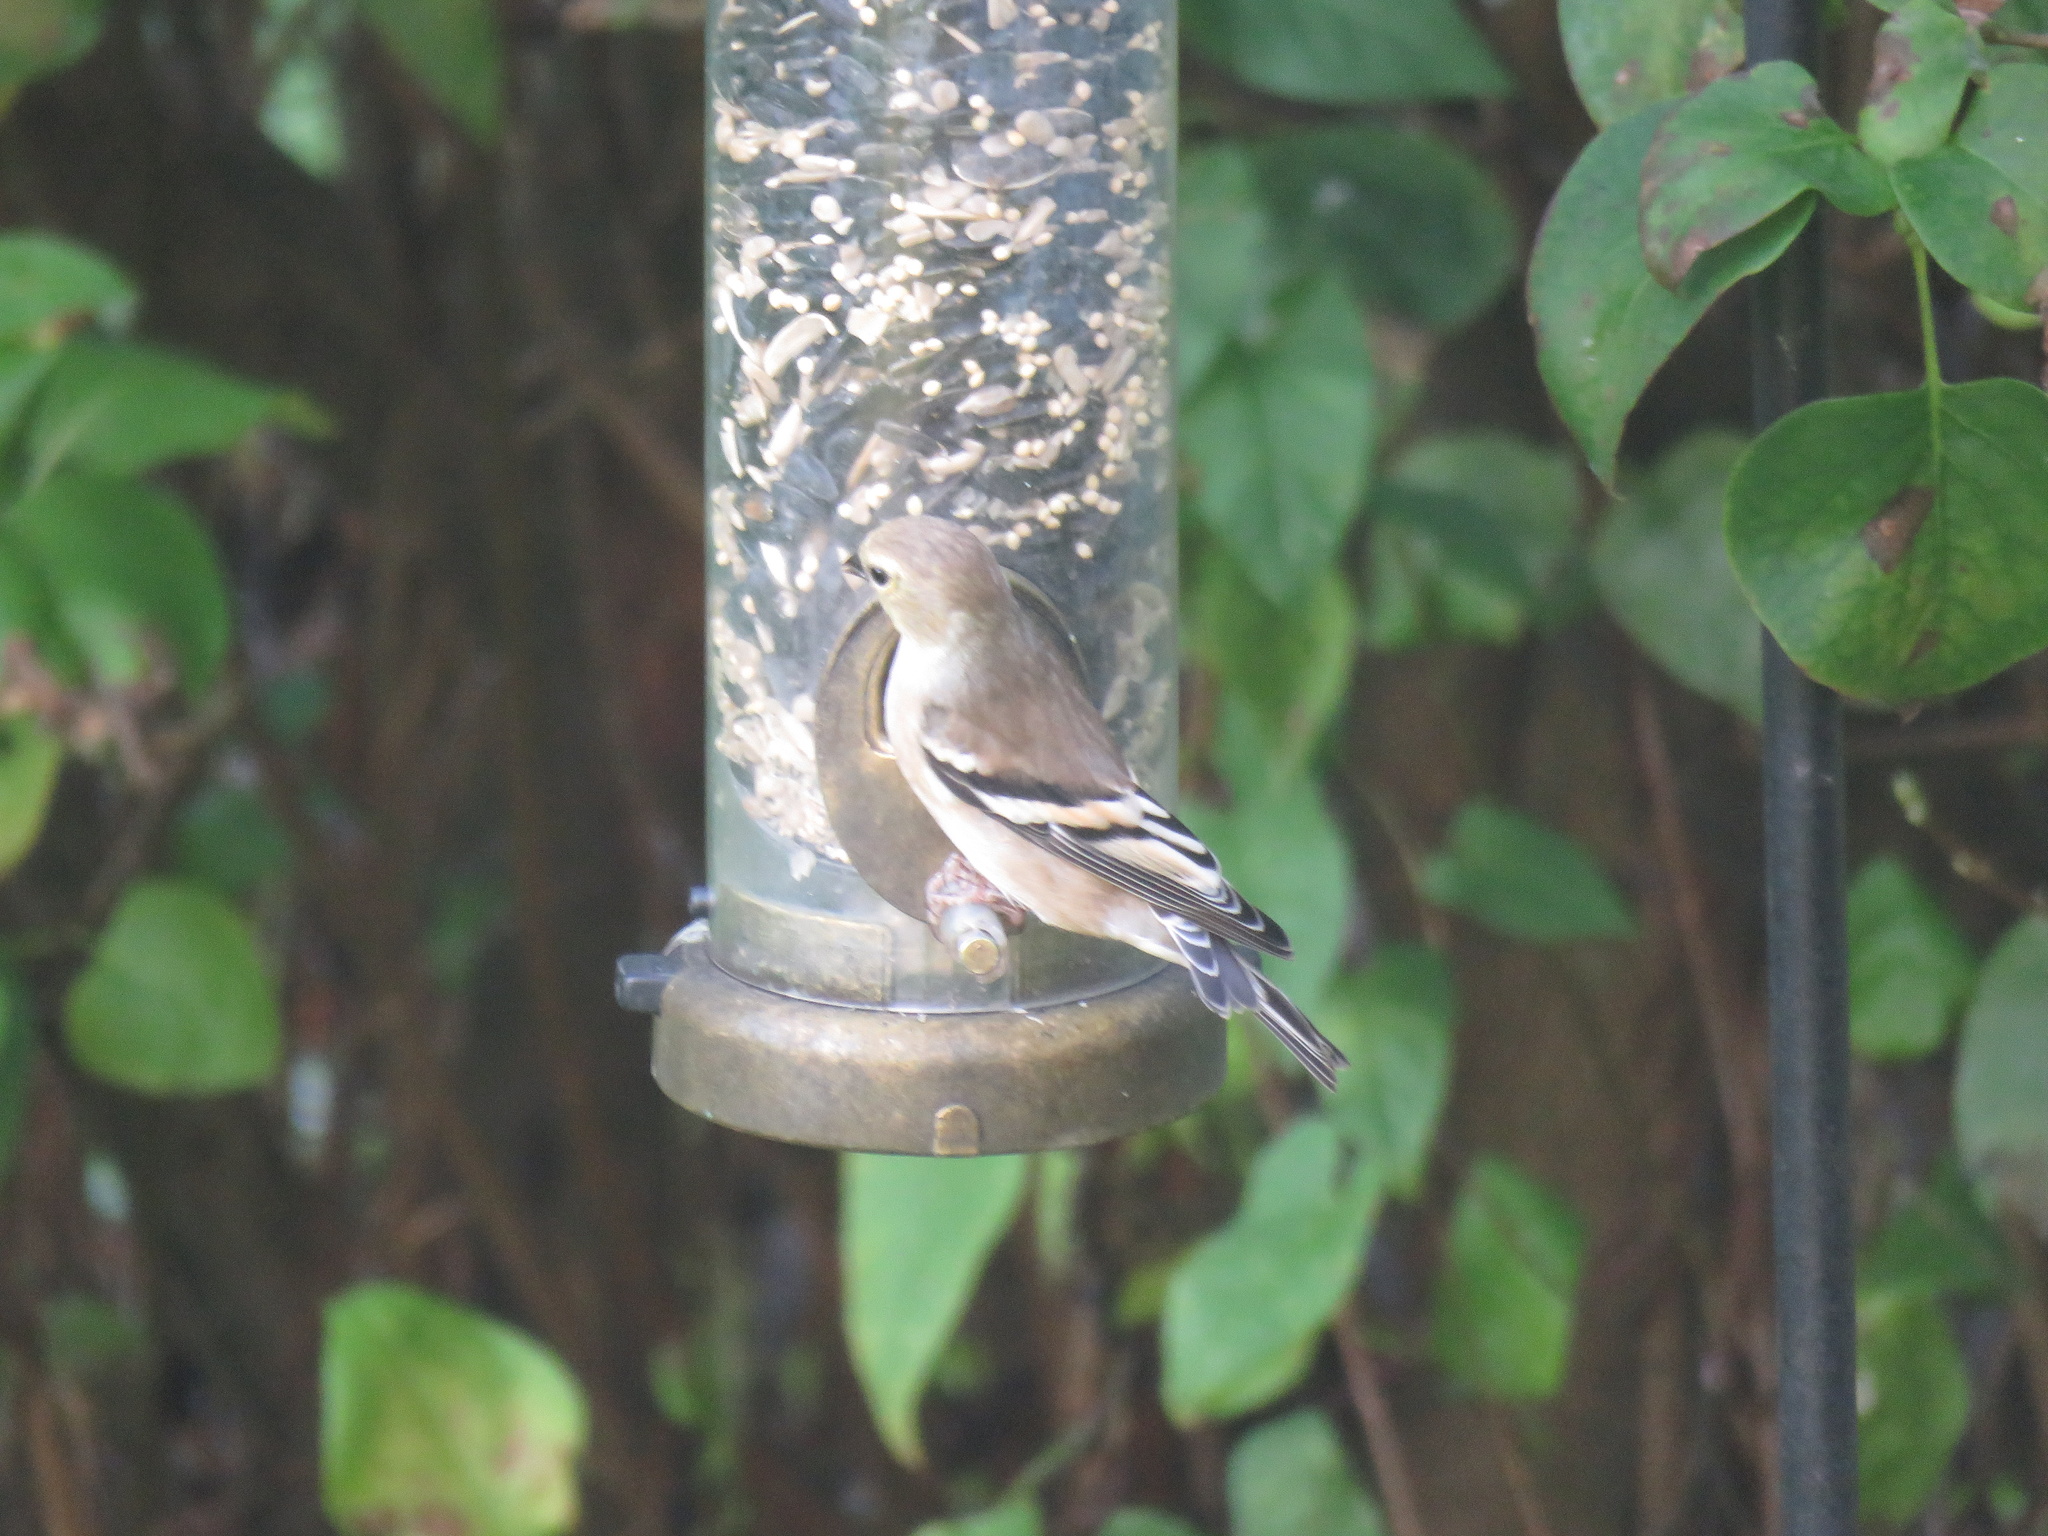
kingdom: Animalia
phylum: Chordata
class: Aves
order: Passeriformes
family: Fringillidae
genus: Spinus
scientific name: Spinus tristis
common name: American goldfinch
